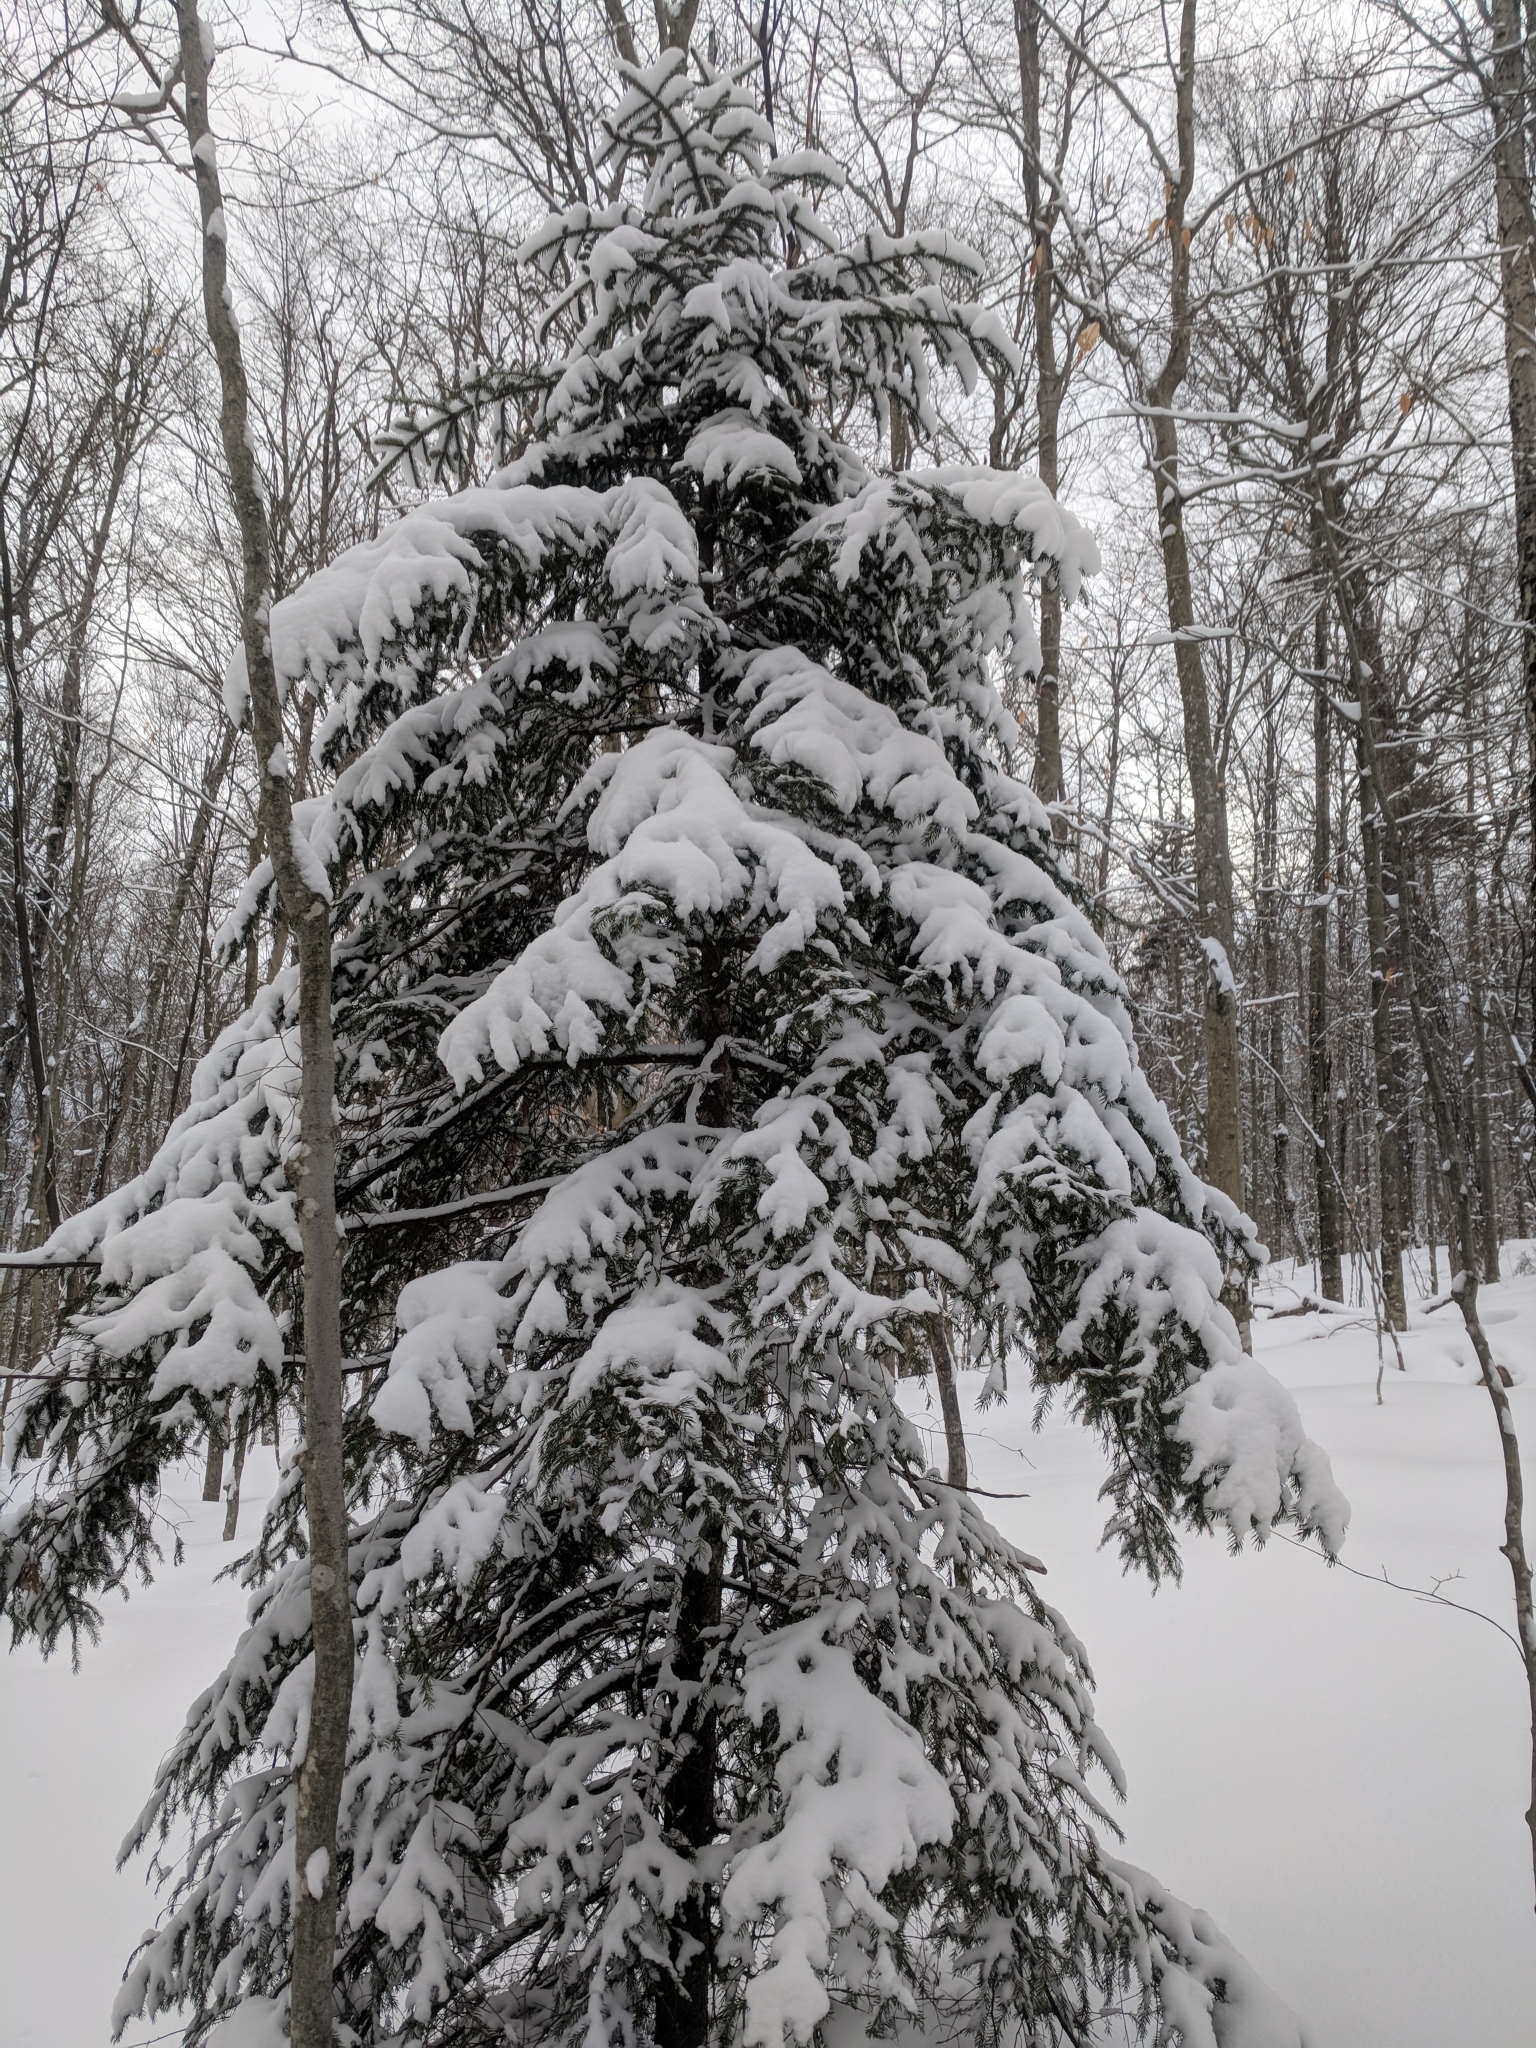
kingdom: Plantae
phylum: Tracheophyta
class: Pinopsida
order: Pinales
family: Pinaceae
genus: Picea
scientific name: Picea rubens
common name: Red spruce
